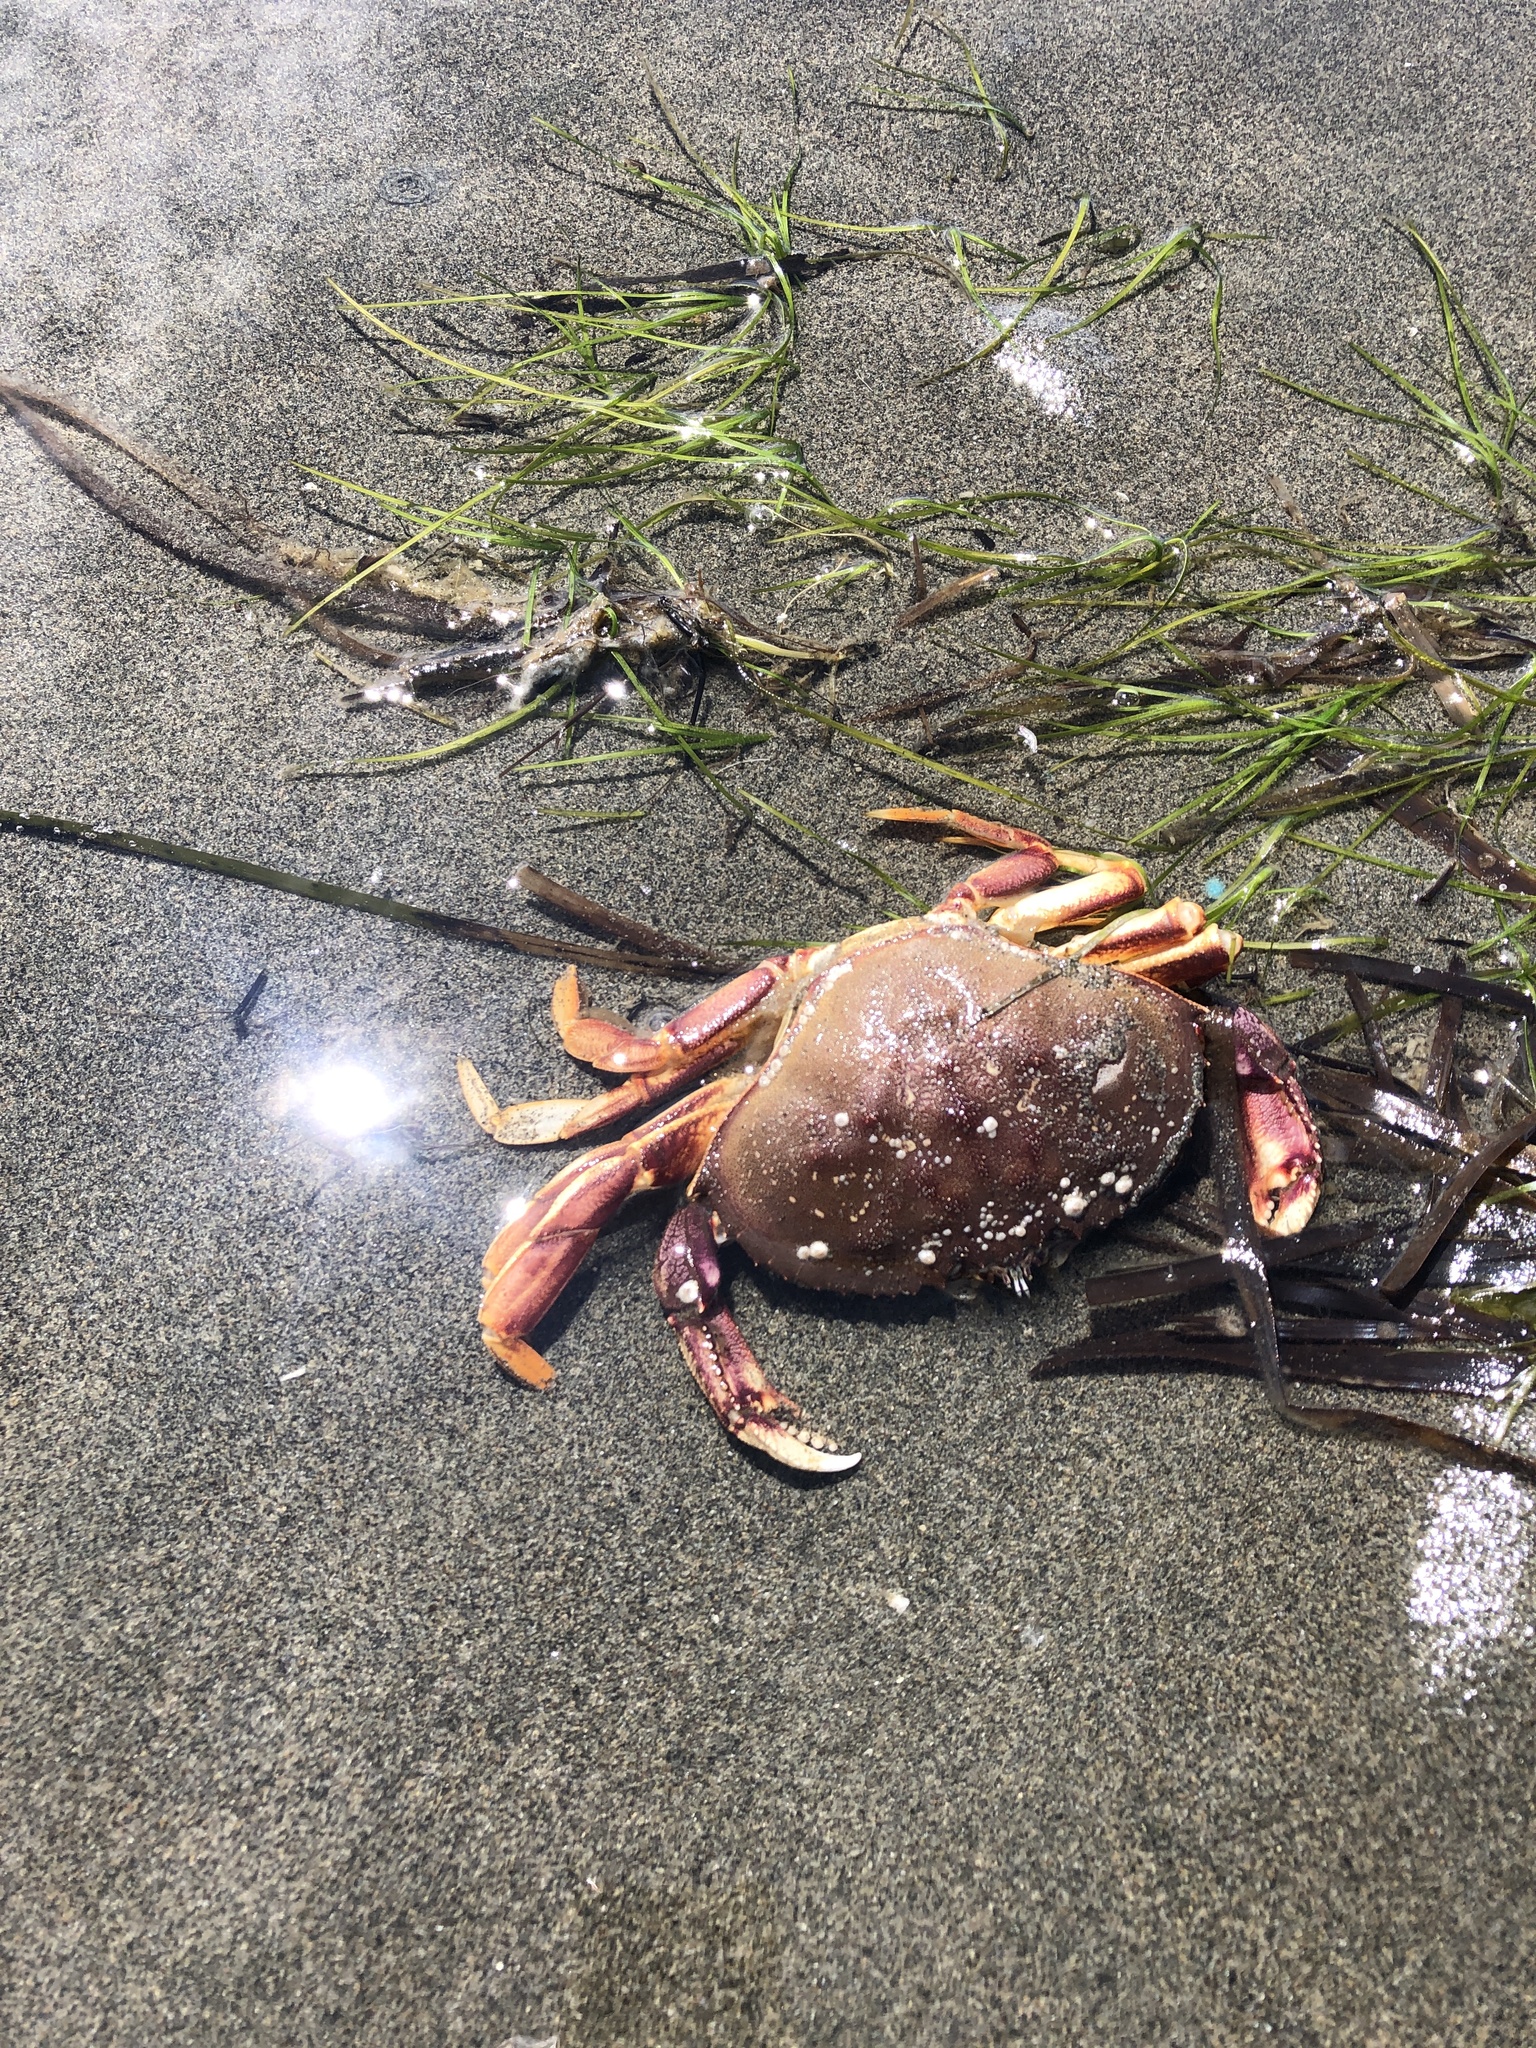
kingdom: Animalia
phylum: Arthropoda
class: Malacostraca
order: Decapoda
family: Cancridae
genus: Metacarcinus
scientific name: Metacarcinus magister
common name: Californian crab
